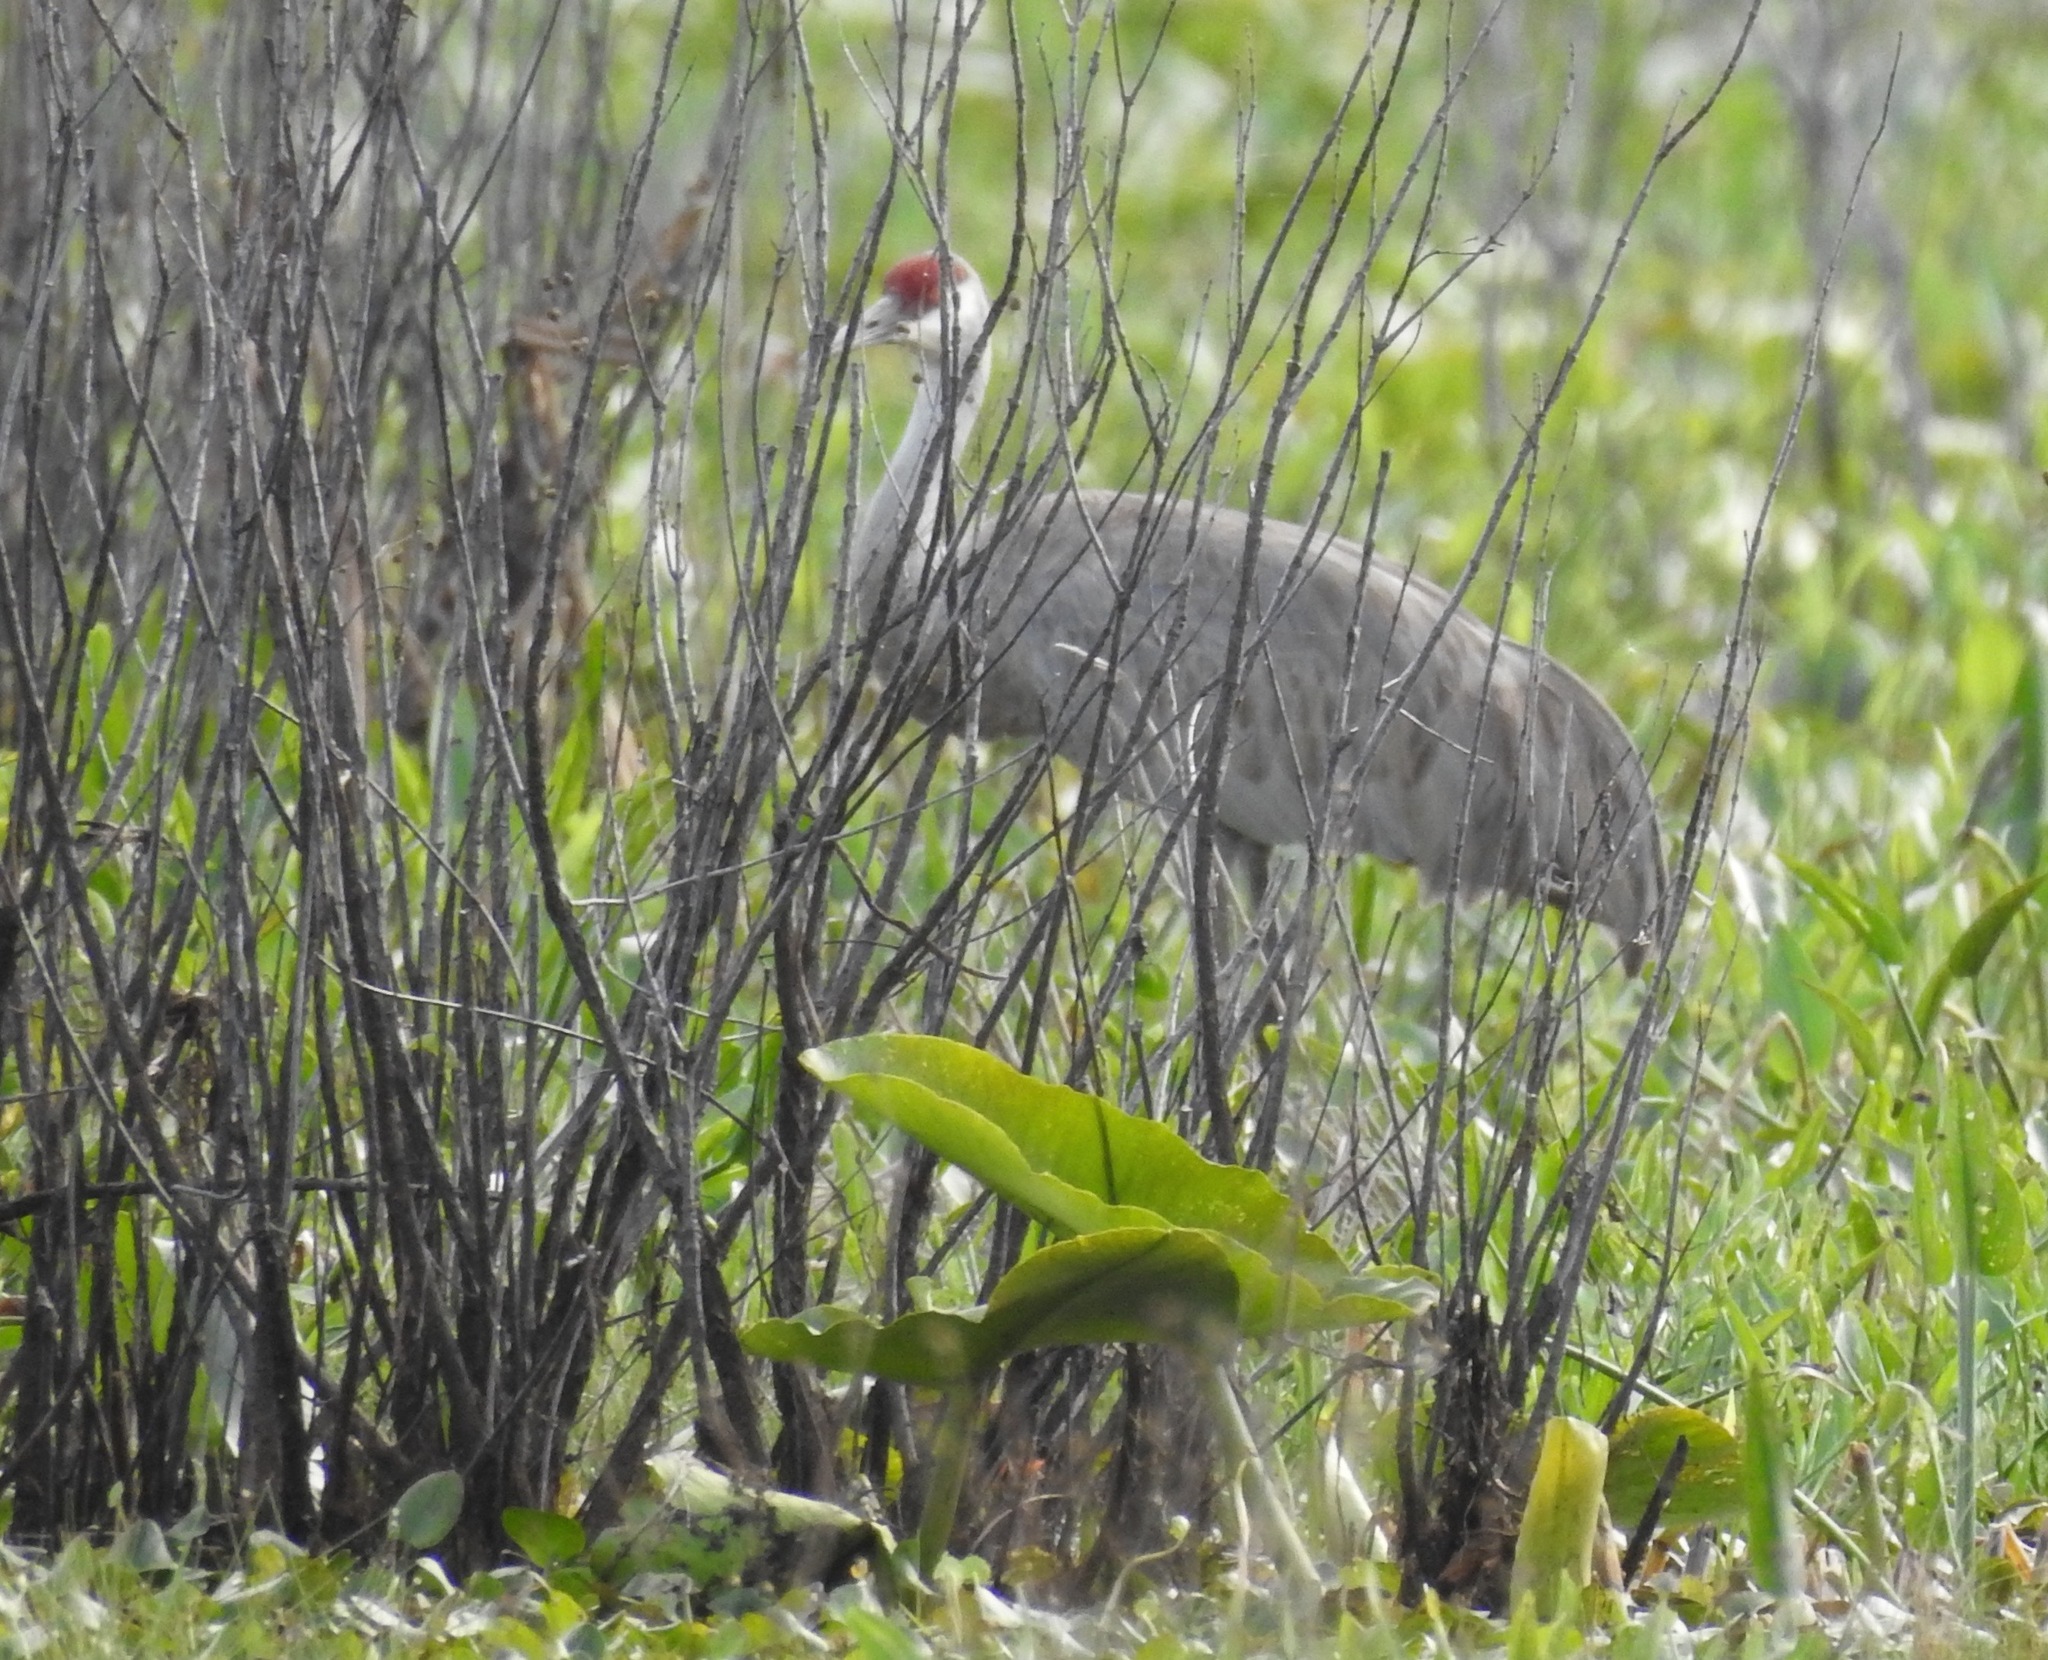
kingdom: Animalia
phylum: Chordata
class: Aves
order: Gruiformes
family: Gruidae
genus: Grus
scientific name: Grus canadensis
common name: Sandhill crane
